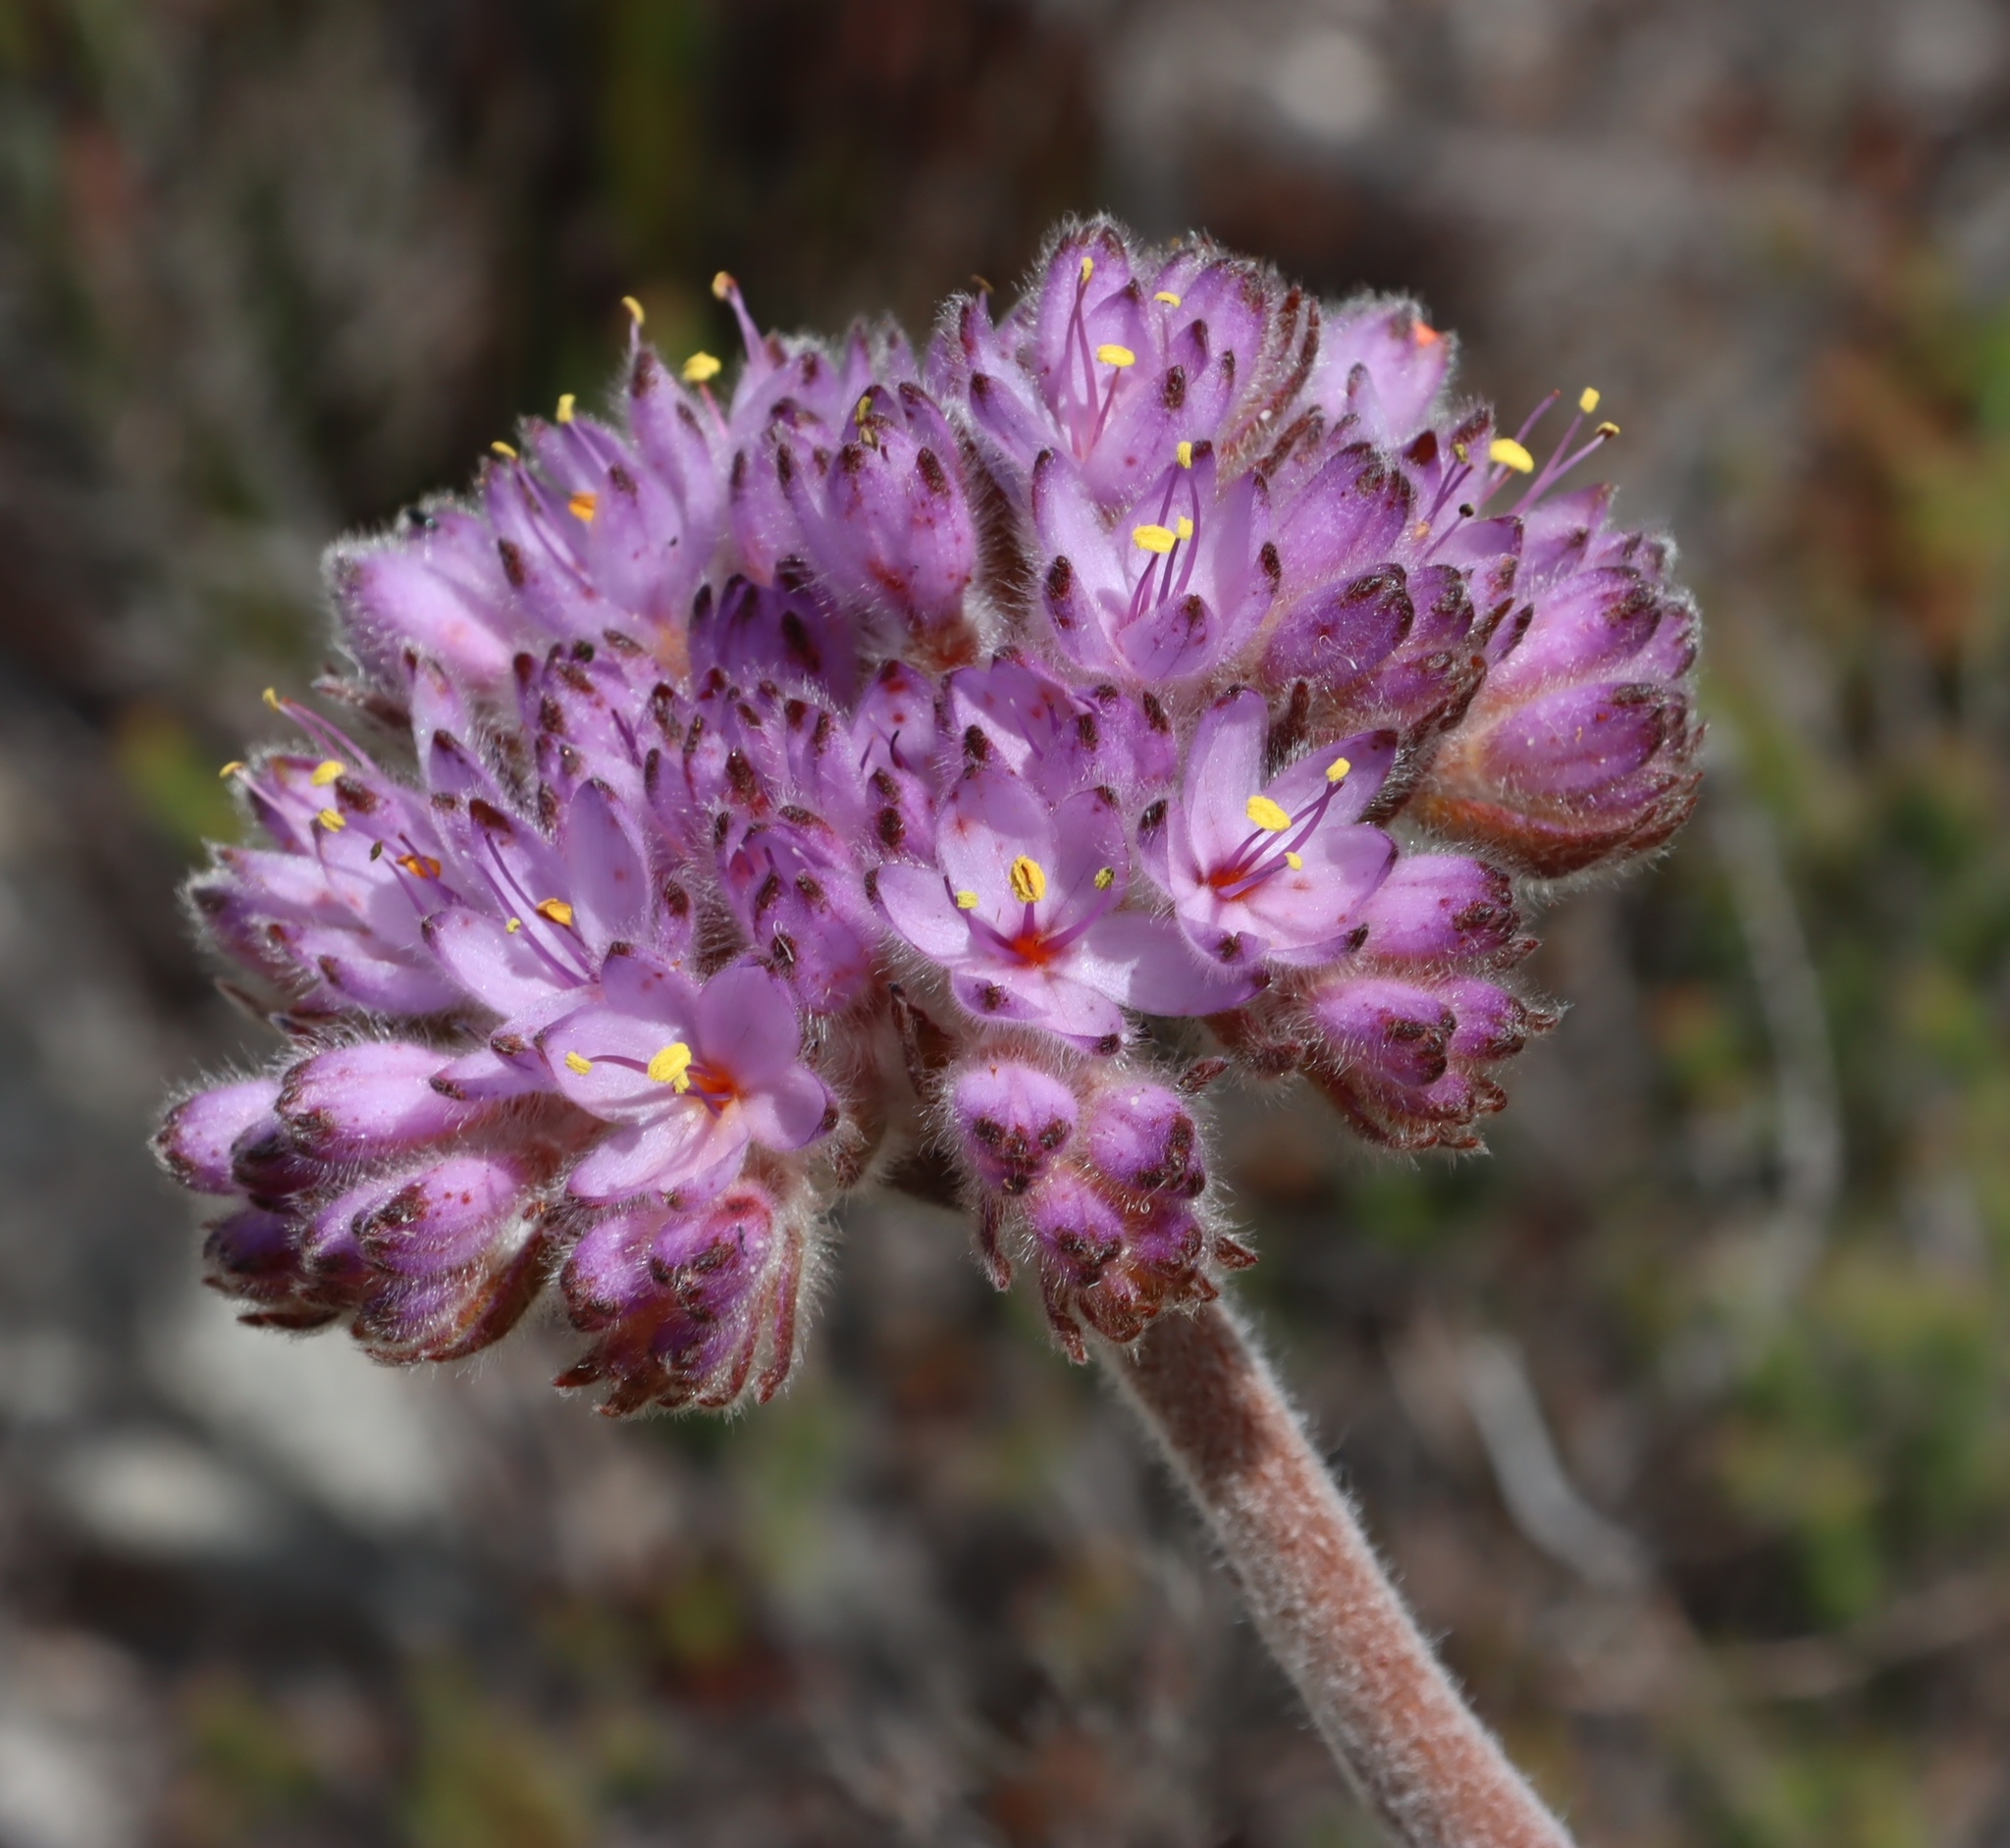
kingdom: Plantae
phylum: Tracheophyta
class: Liliopsida
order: Commelinales
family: Haemodoraceae
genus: Dilatris
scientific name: Dilatris corymbosa
